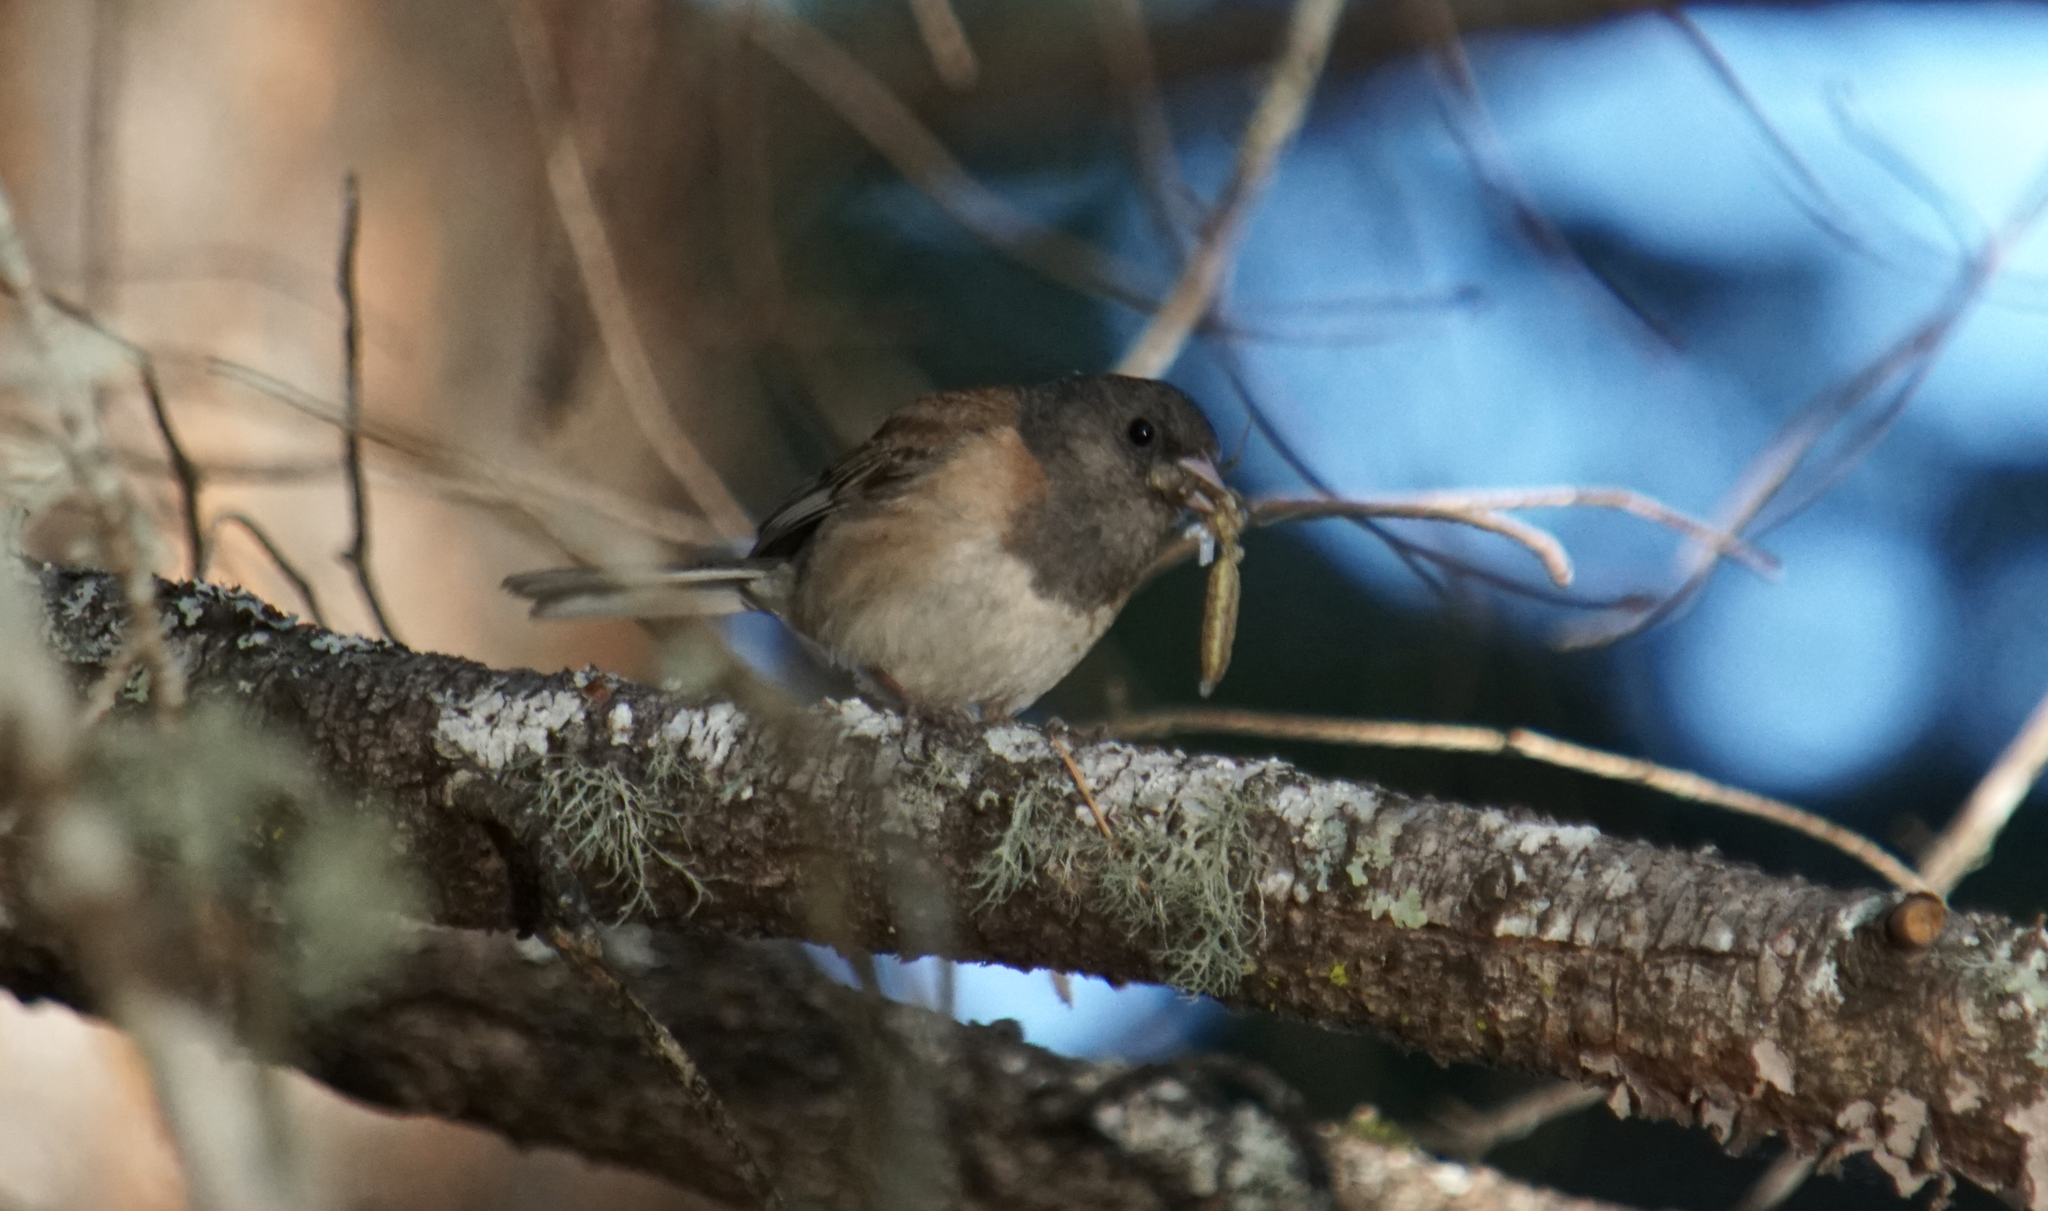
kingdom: Animalia
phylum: Chordata
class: Aves
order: Passeriformes
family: Passerellidae
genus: Junco
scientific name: Junco hyemalis
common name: Dark-eyed junco
